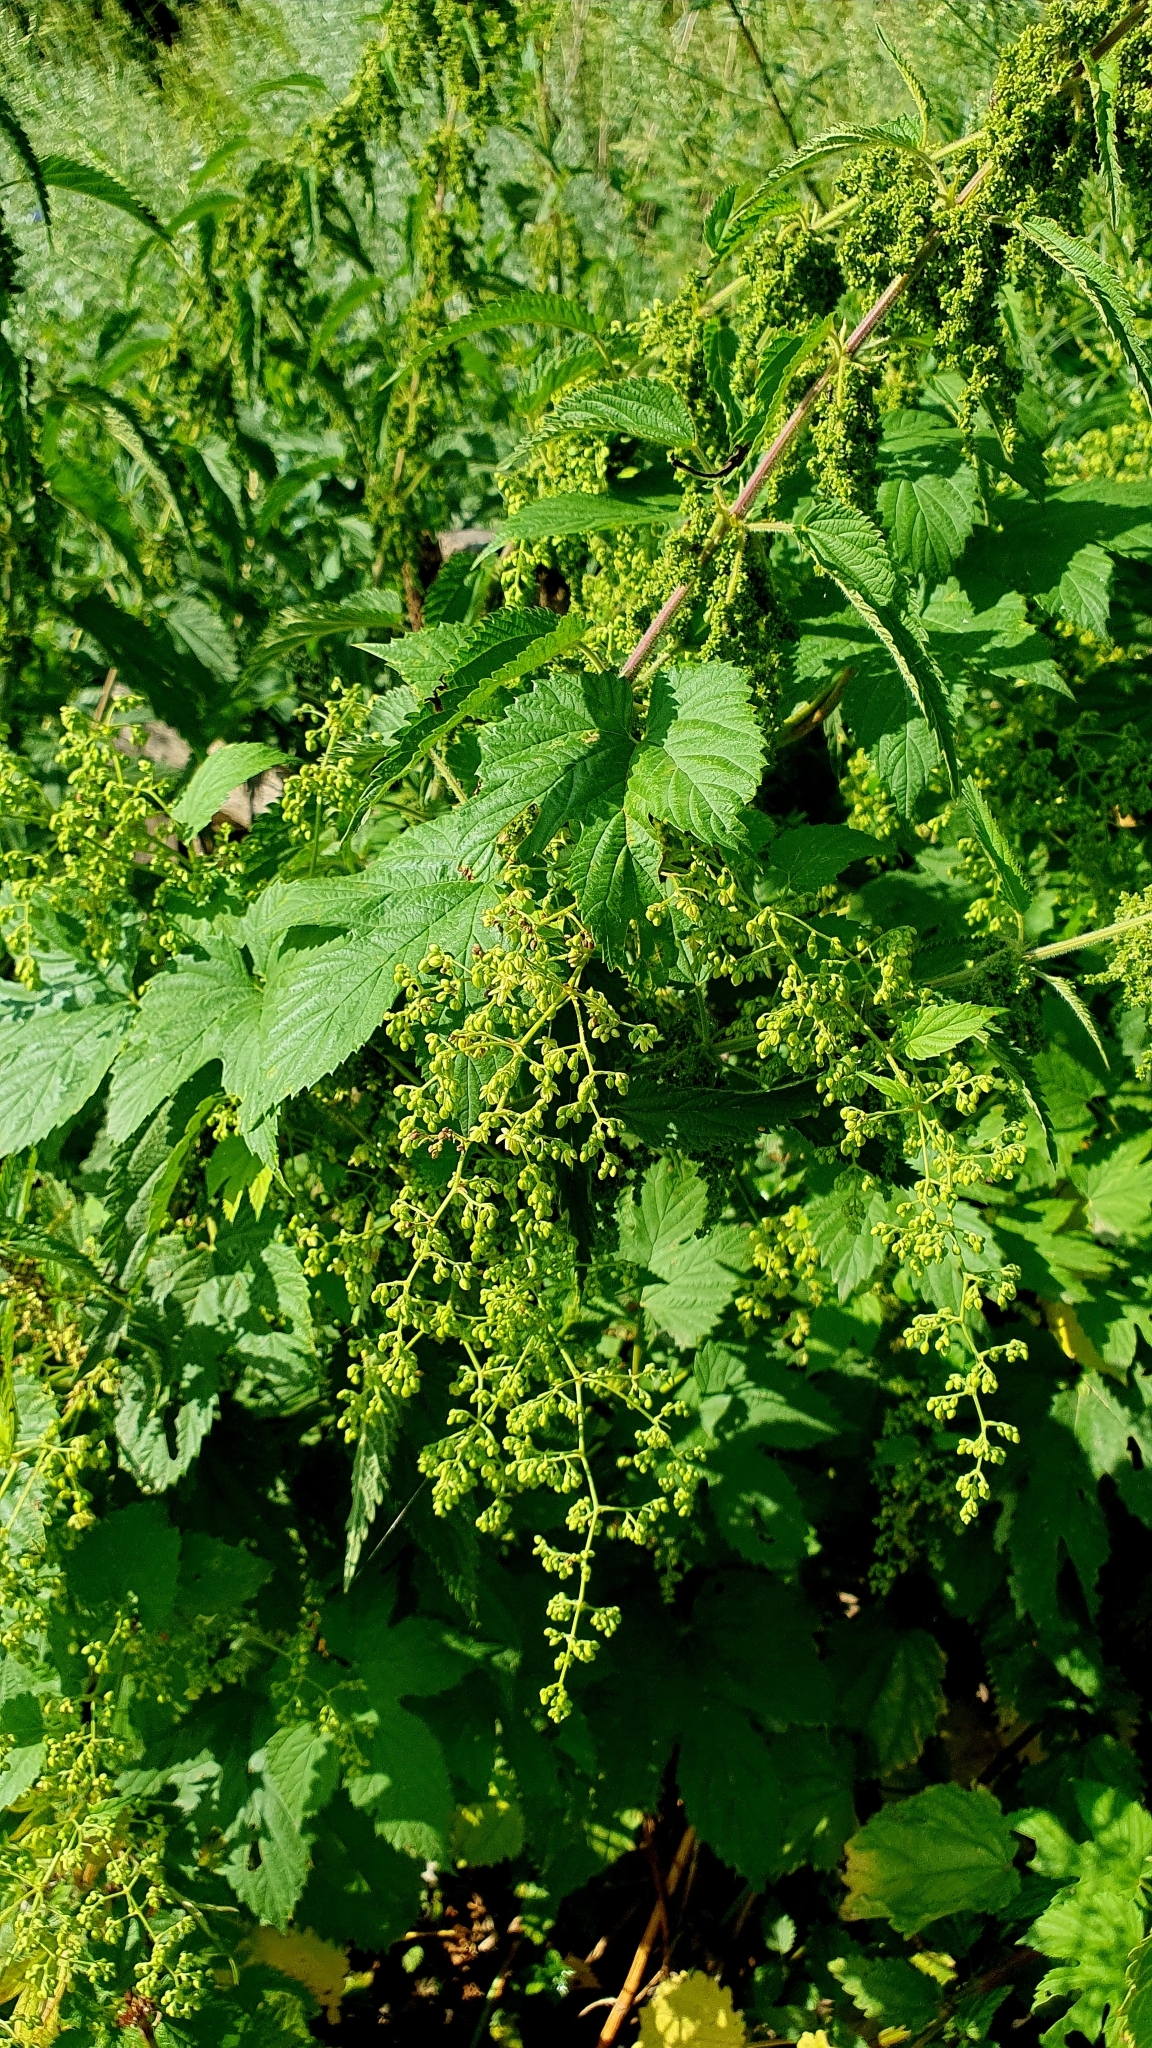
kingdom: Plantae
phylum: Tracheophyta
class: Magnoliopsida
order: Rosales
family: Cannabaceae
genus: Humulus
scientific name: Humulus lupulus
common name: Hop
